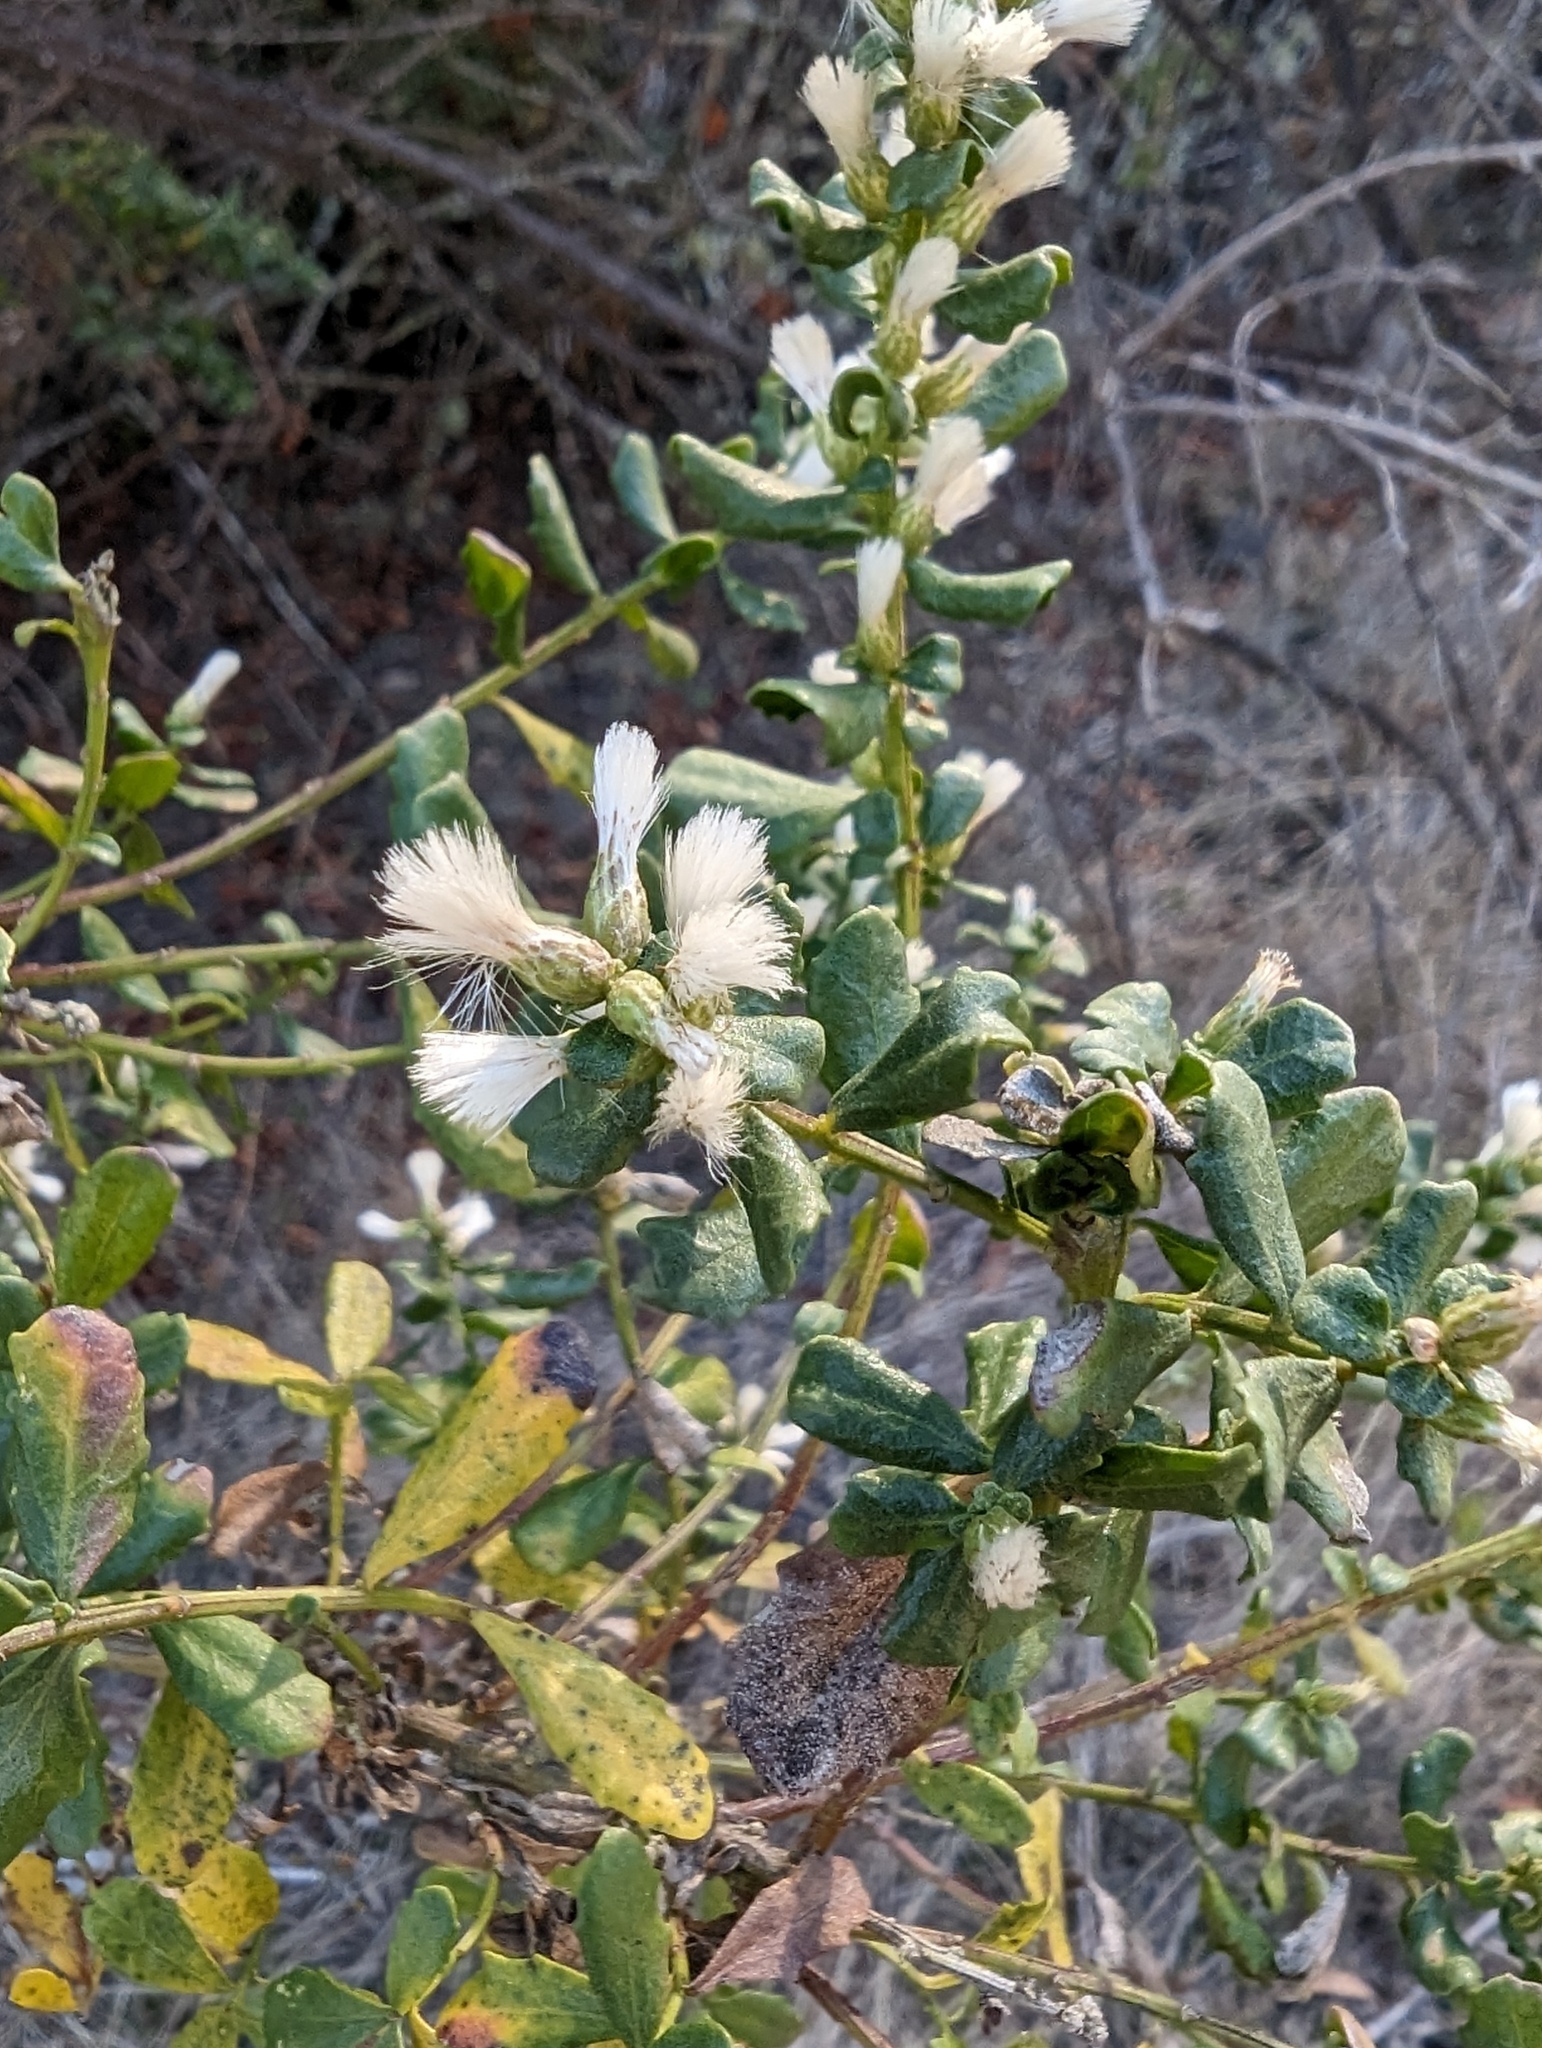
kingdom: Plantae
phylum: Tracheophyta
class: Magnoliopsida
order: Asterales
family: Asteraceae
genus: Baccharis
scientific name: Baccharis pilularis
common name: Coyotebrush
